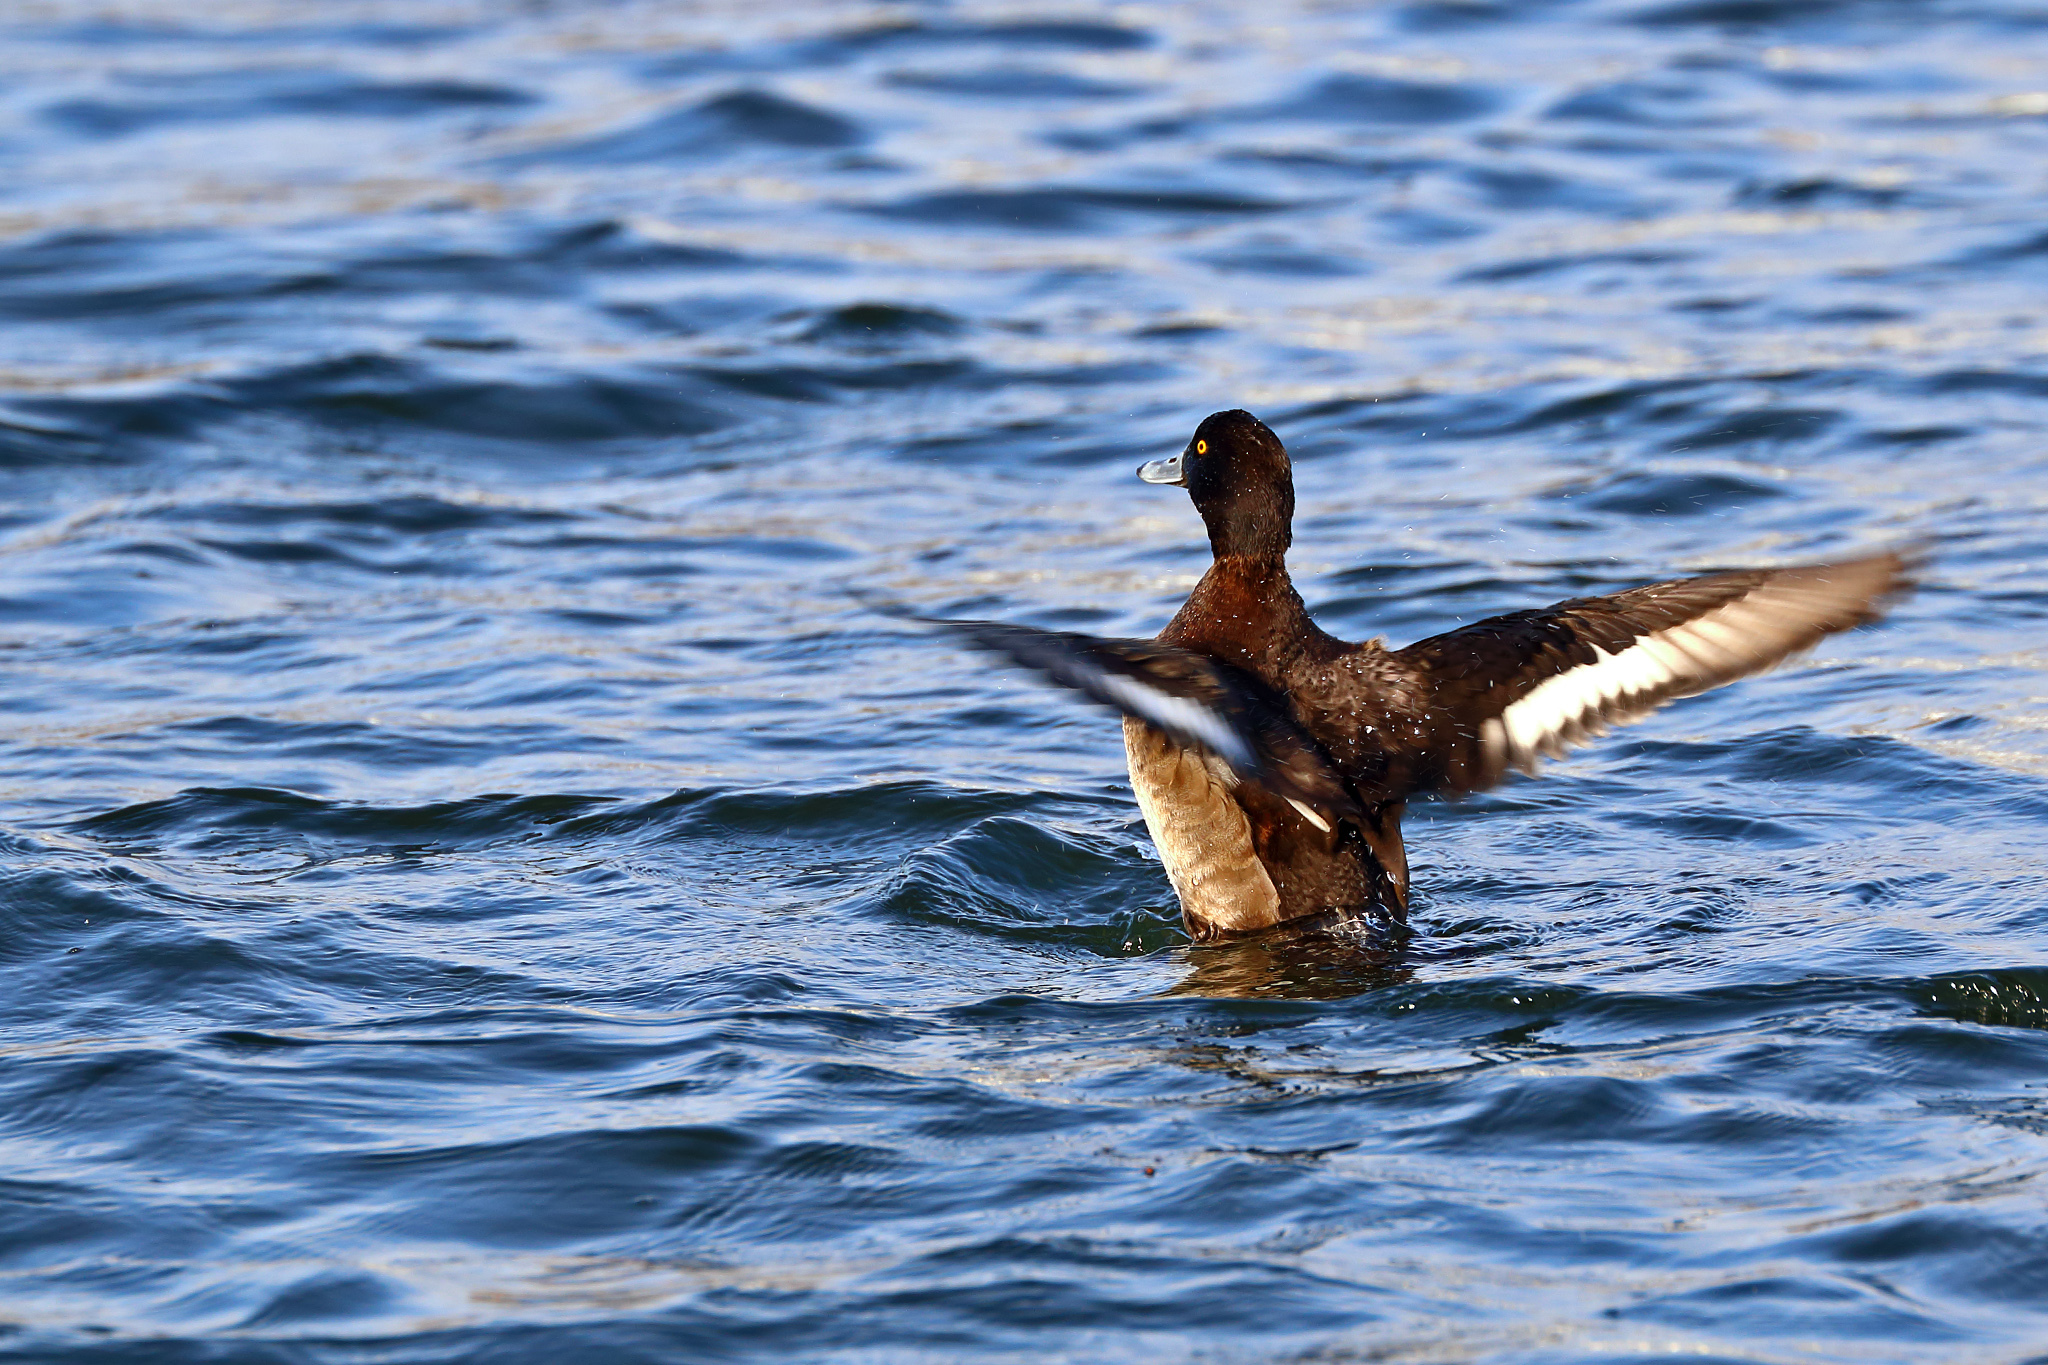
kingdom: Animalia
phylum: Chordata
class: Aves
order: Anseriformes
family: Anatidae
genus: Aythya
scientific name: Aythya fuligula
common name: Tufted duck
